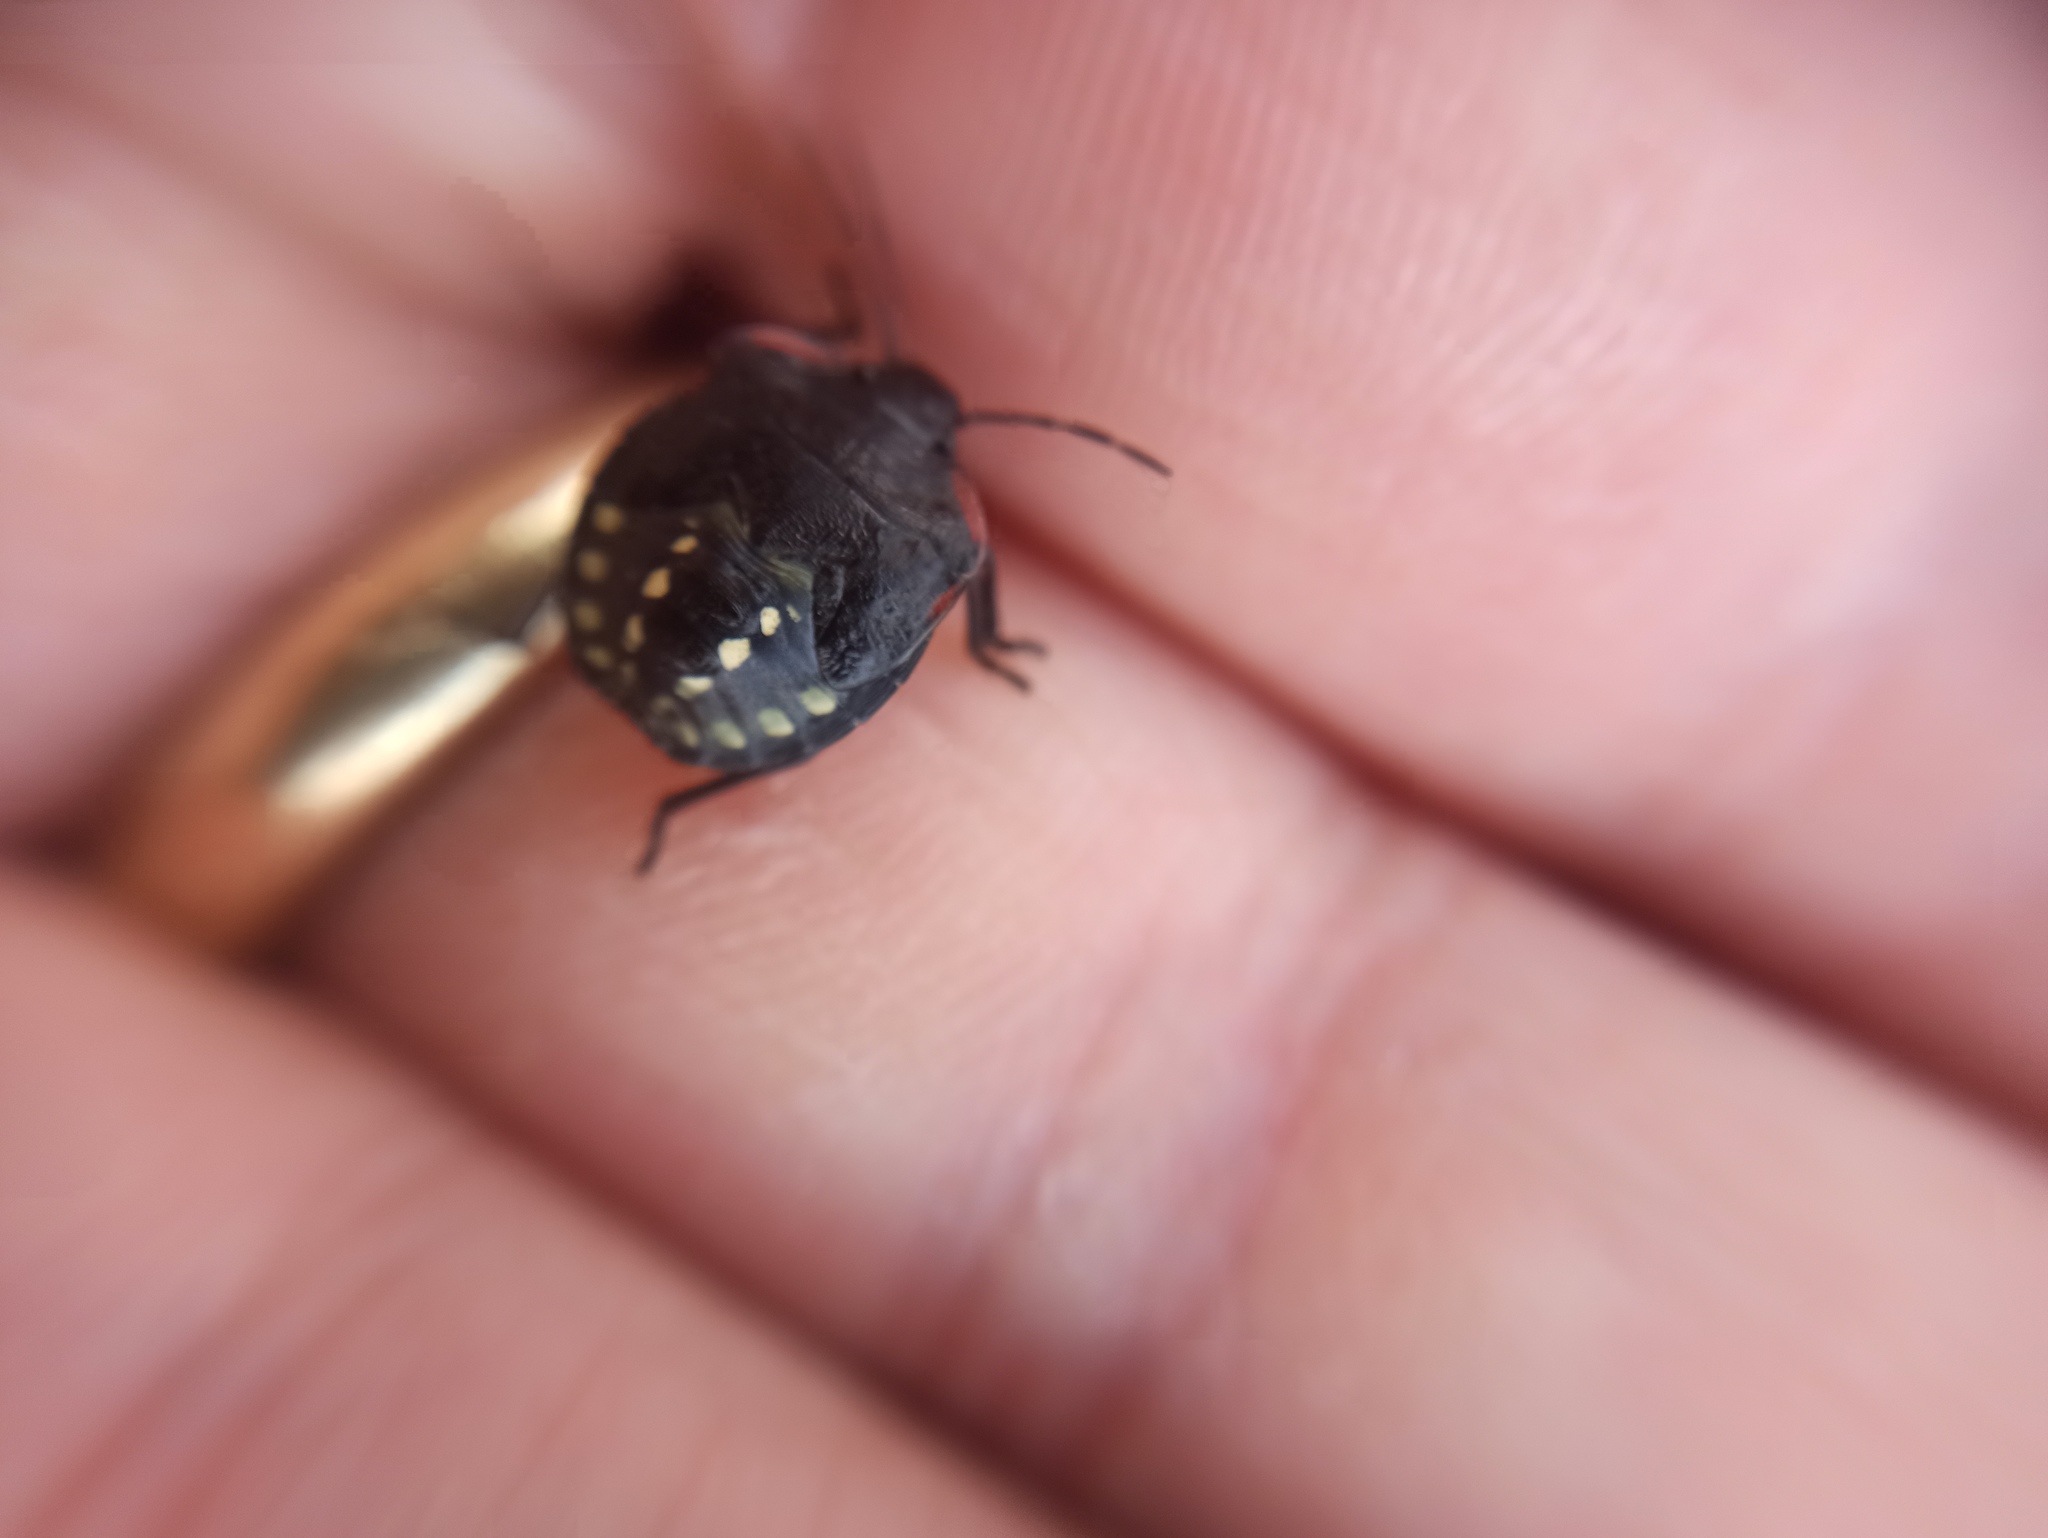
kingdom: Animalia
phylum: Arthropoda
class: Insecta
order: Hemiptera
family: Pentatomidae
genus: Nezara
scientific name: Nezara viridula
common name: Southern green stink bug
